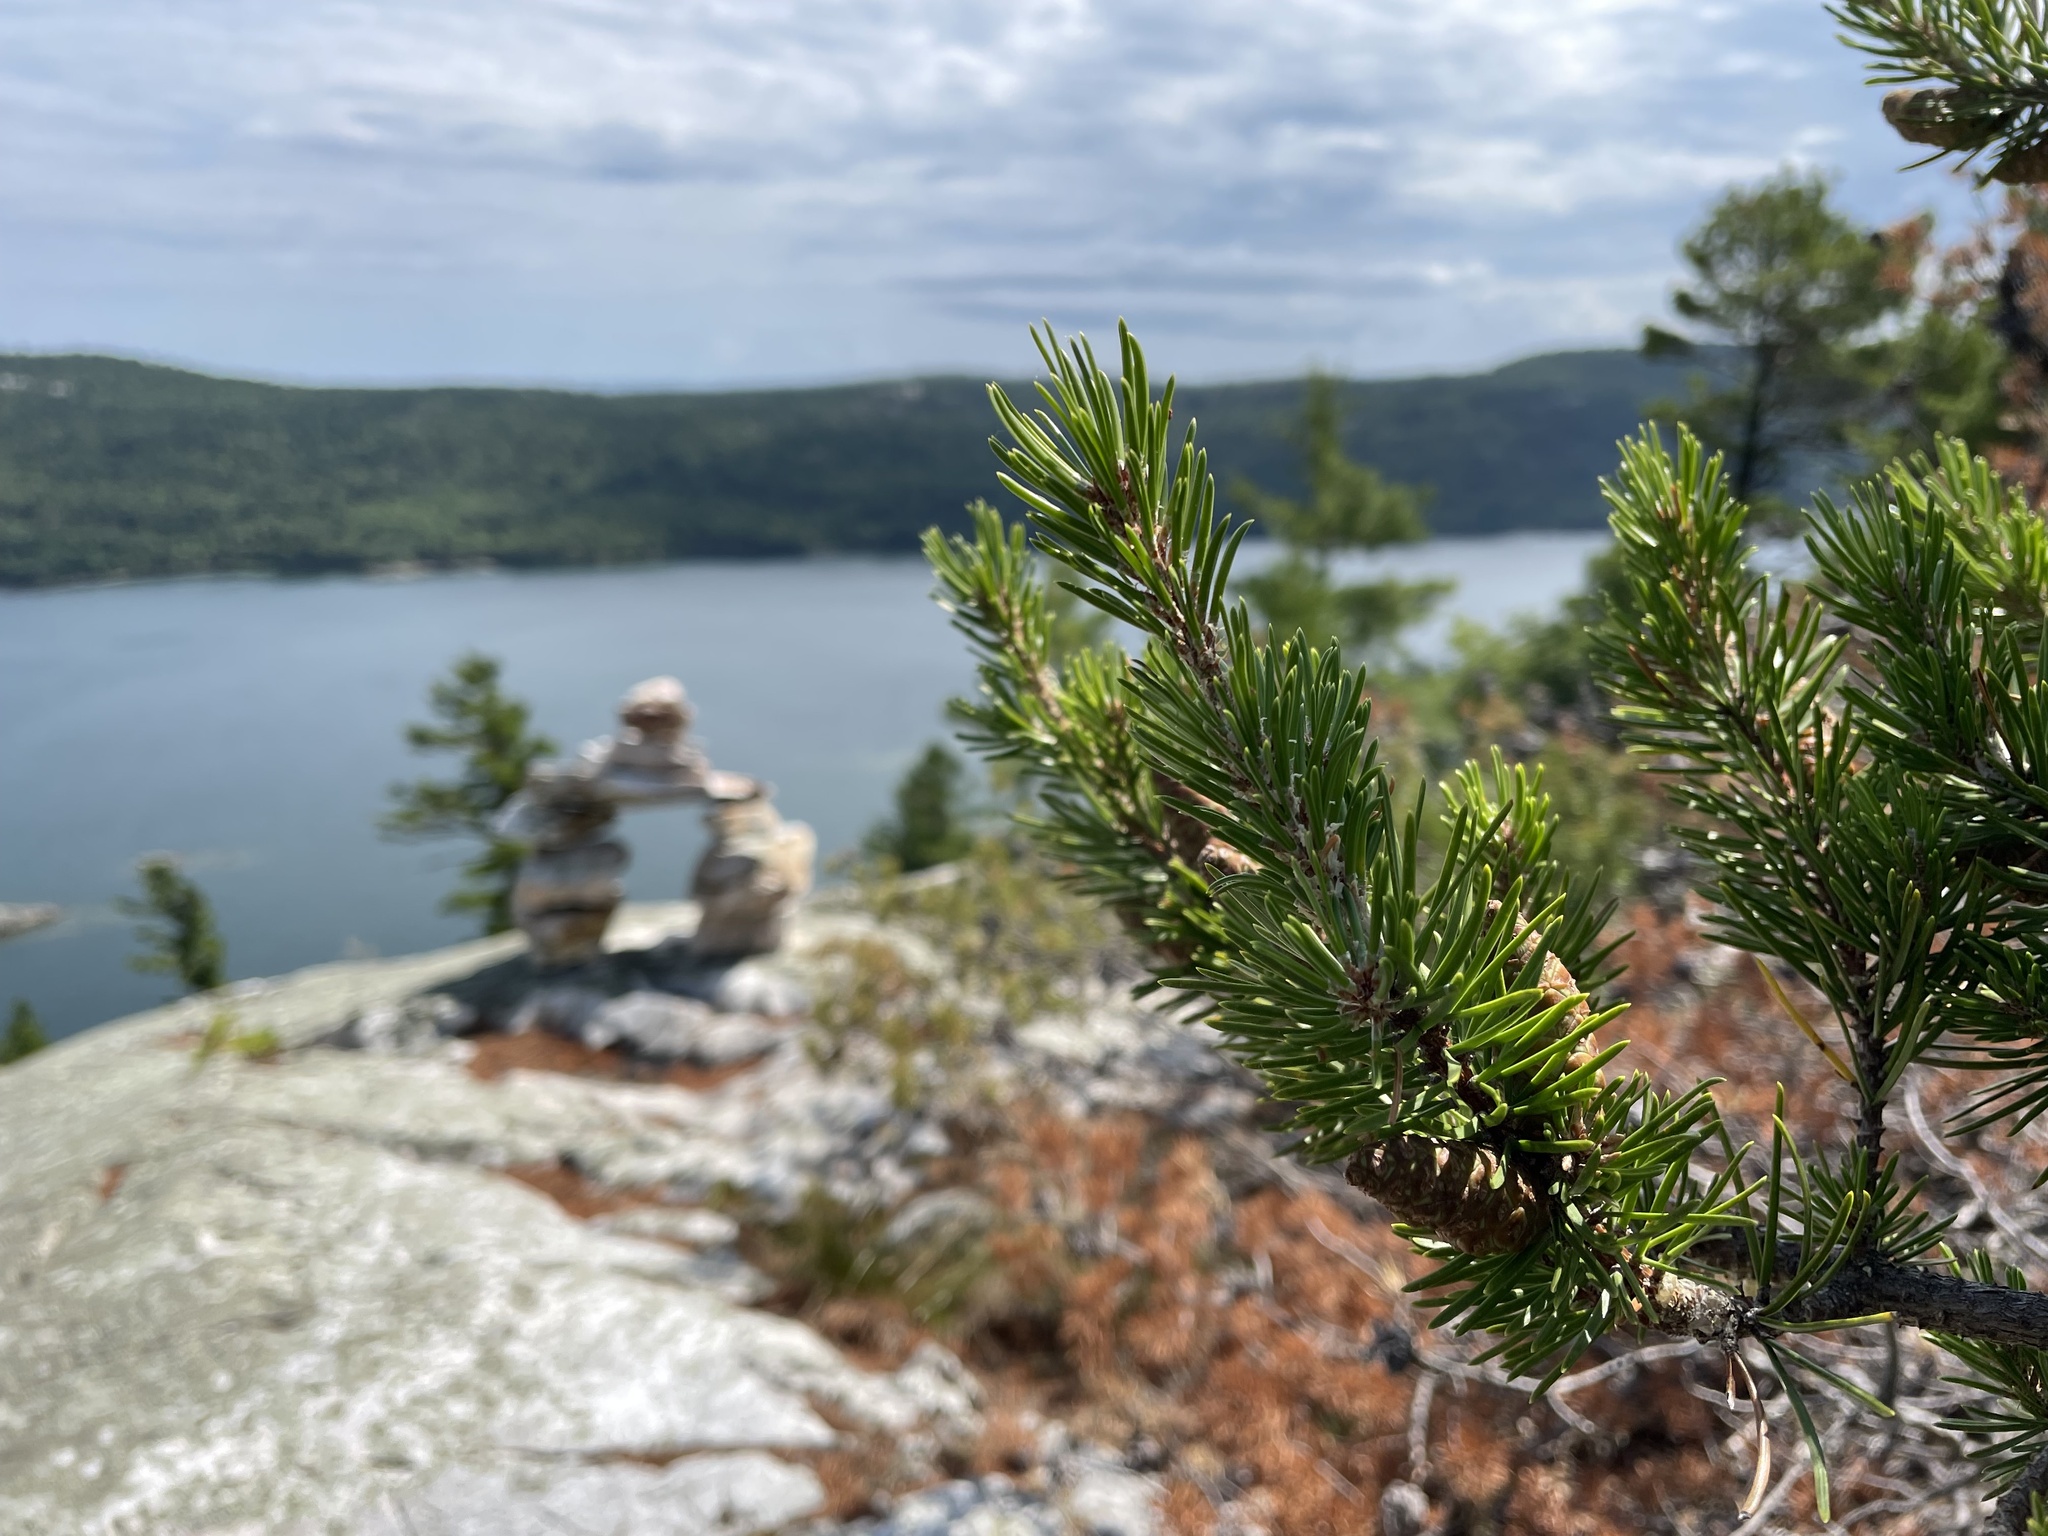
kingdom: Plantae
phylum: Tracheophyta
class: Pinopsida
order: Pinales
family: Pinaceae
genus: Pinus
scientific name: Pinus banksiana
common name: Jack pine
